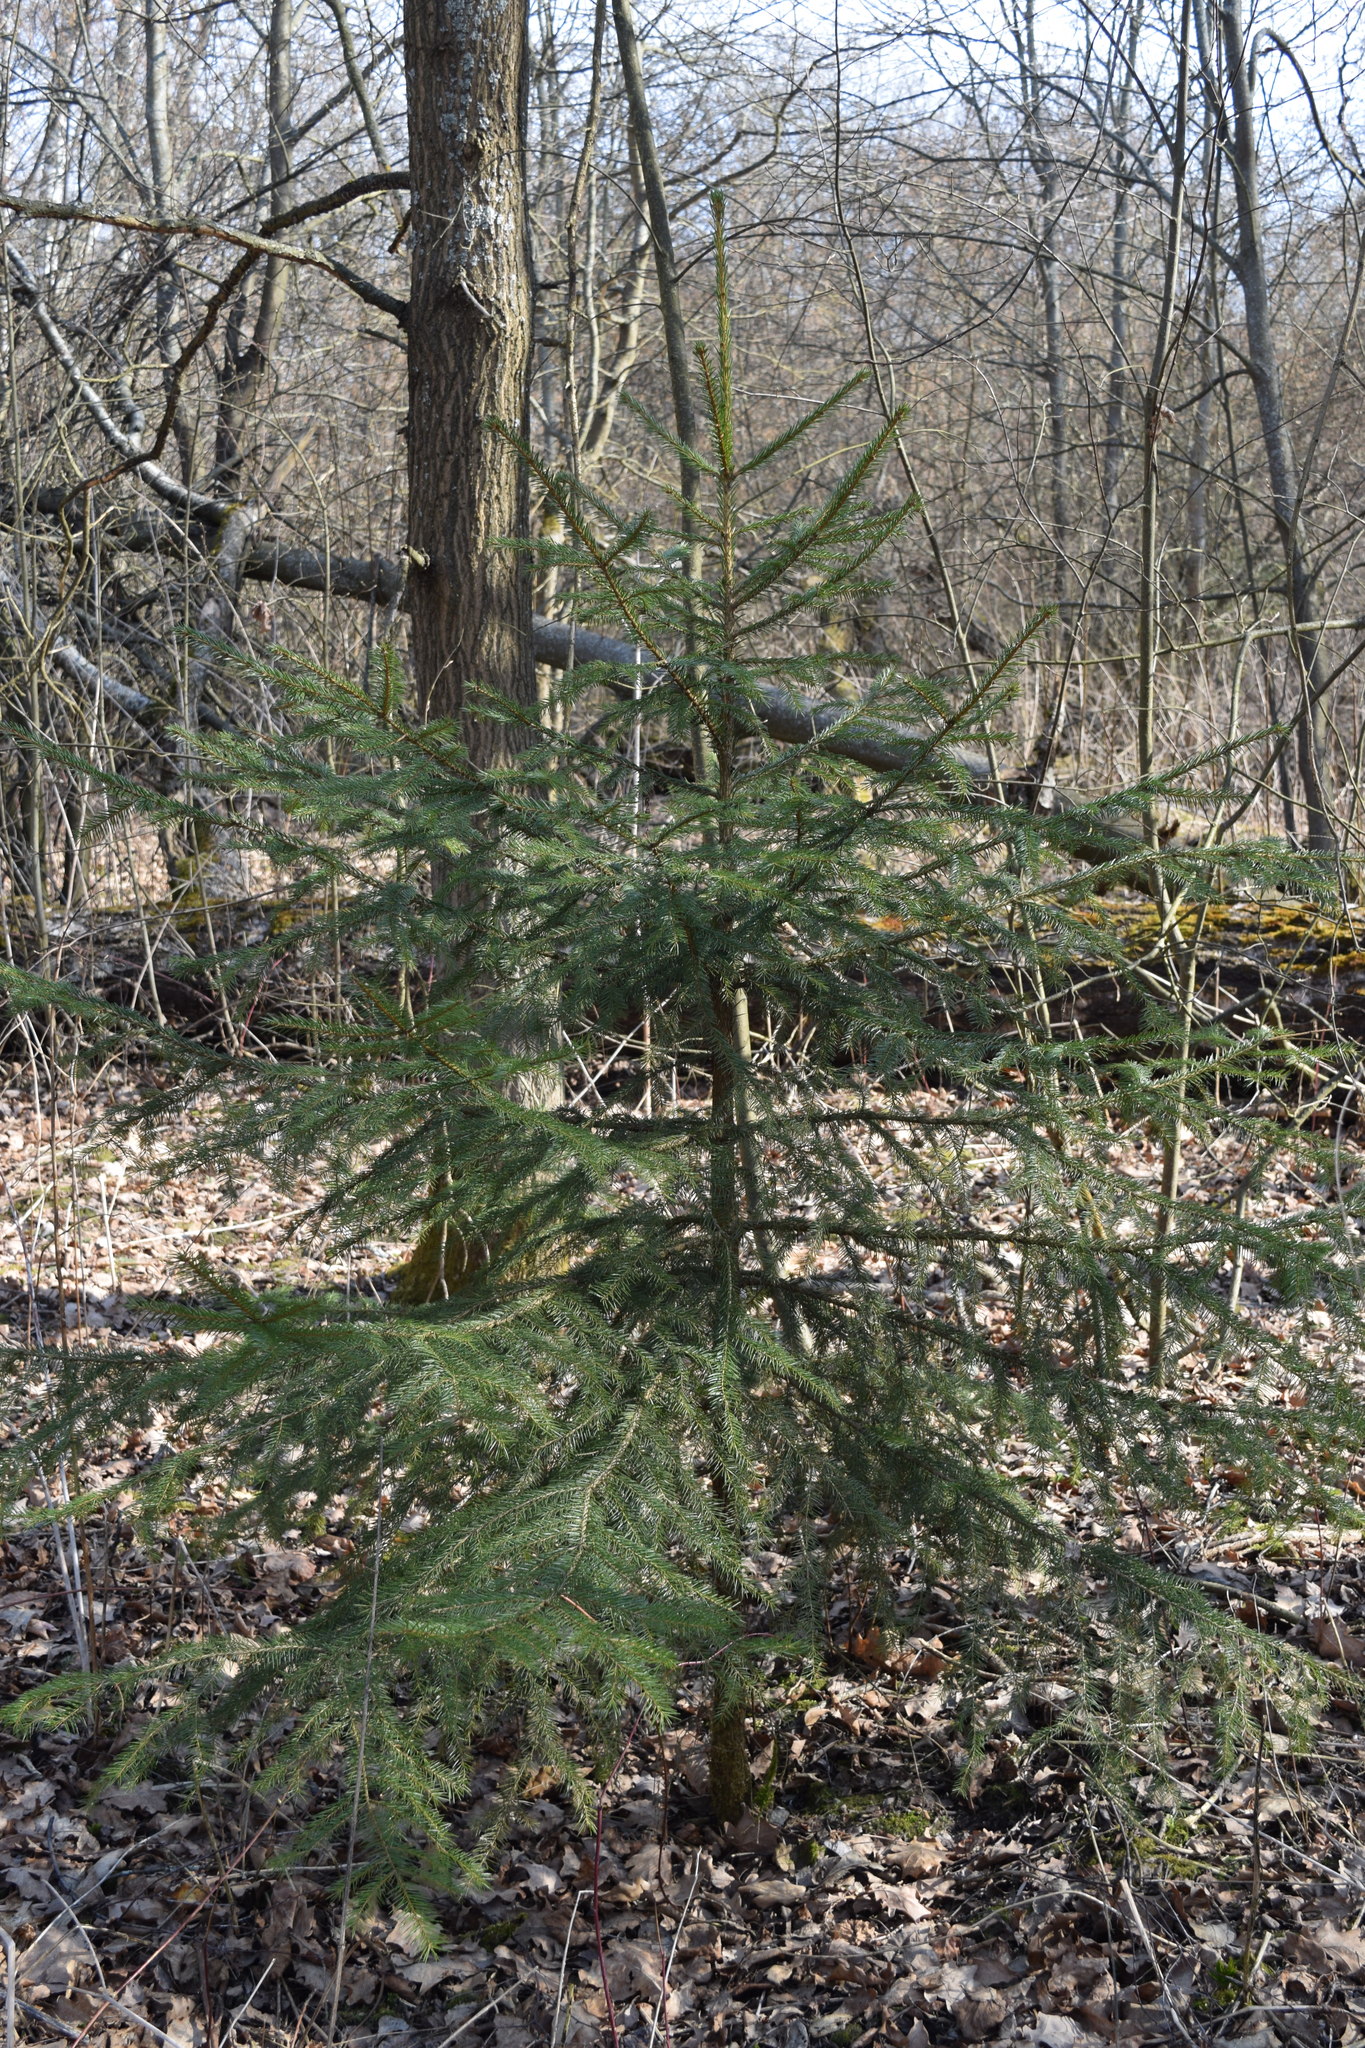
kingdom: Plantae
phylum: Tracheophyta
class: Pinopsida
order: Pinales
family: Pinaceae
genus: Picea
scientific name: Picea abies
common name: Norway spruce
